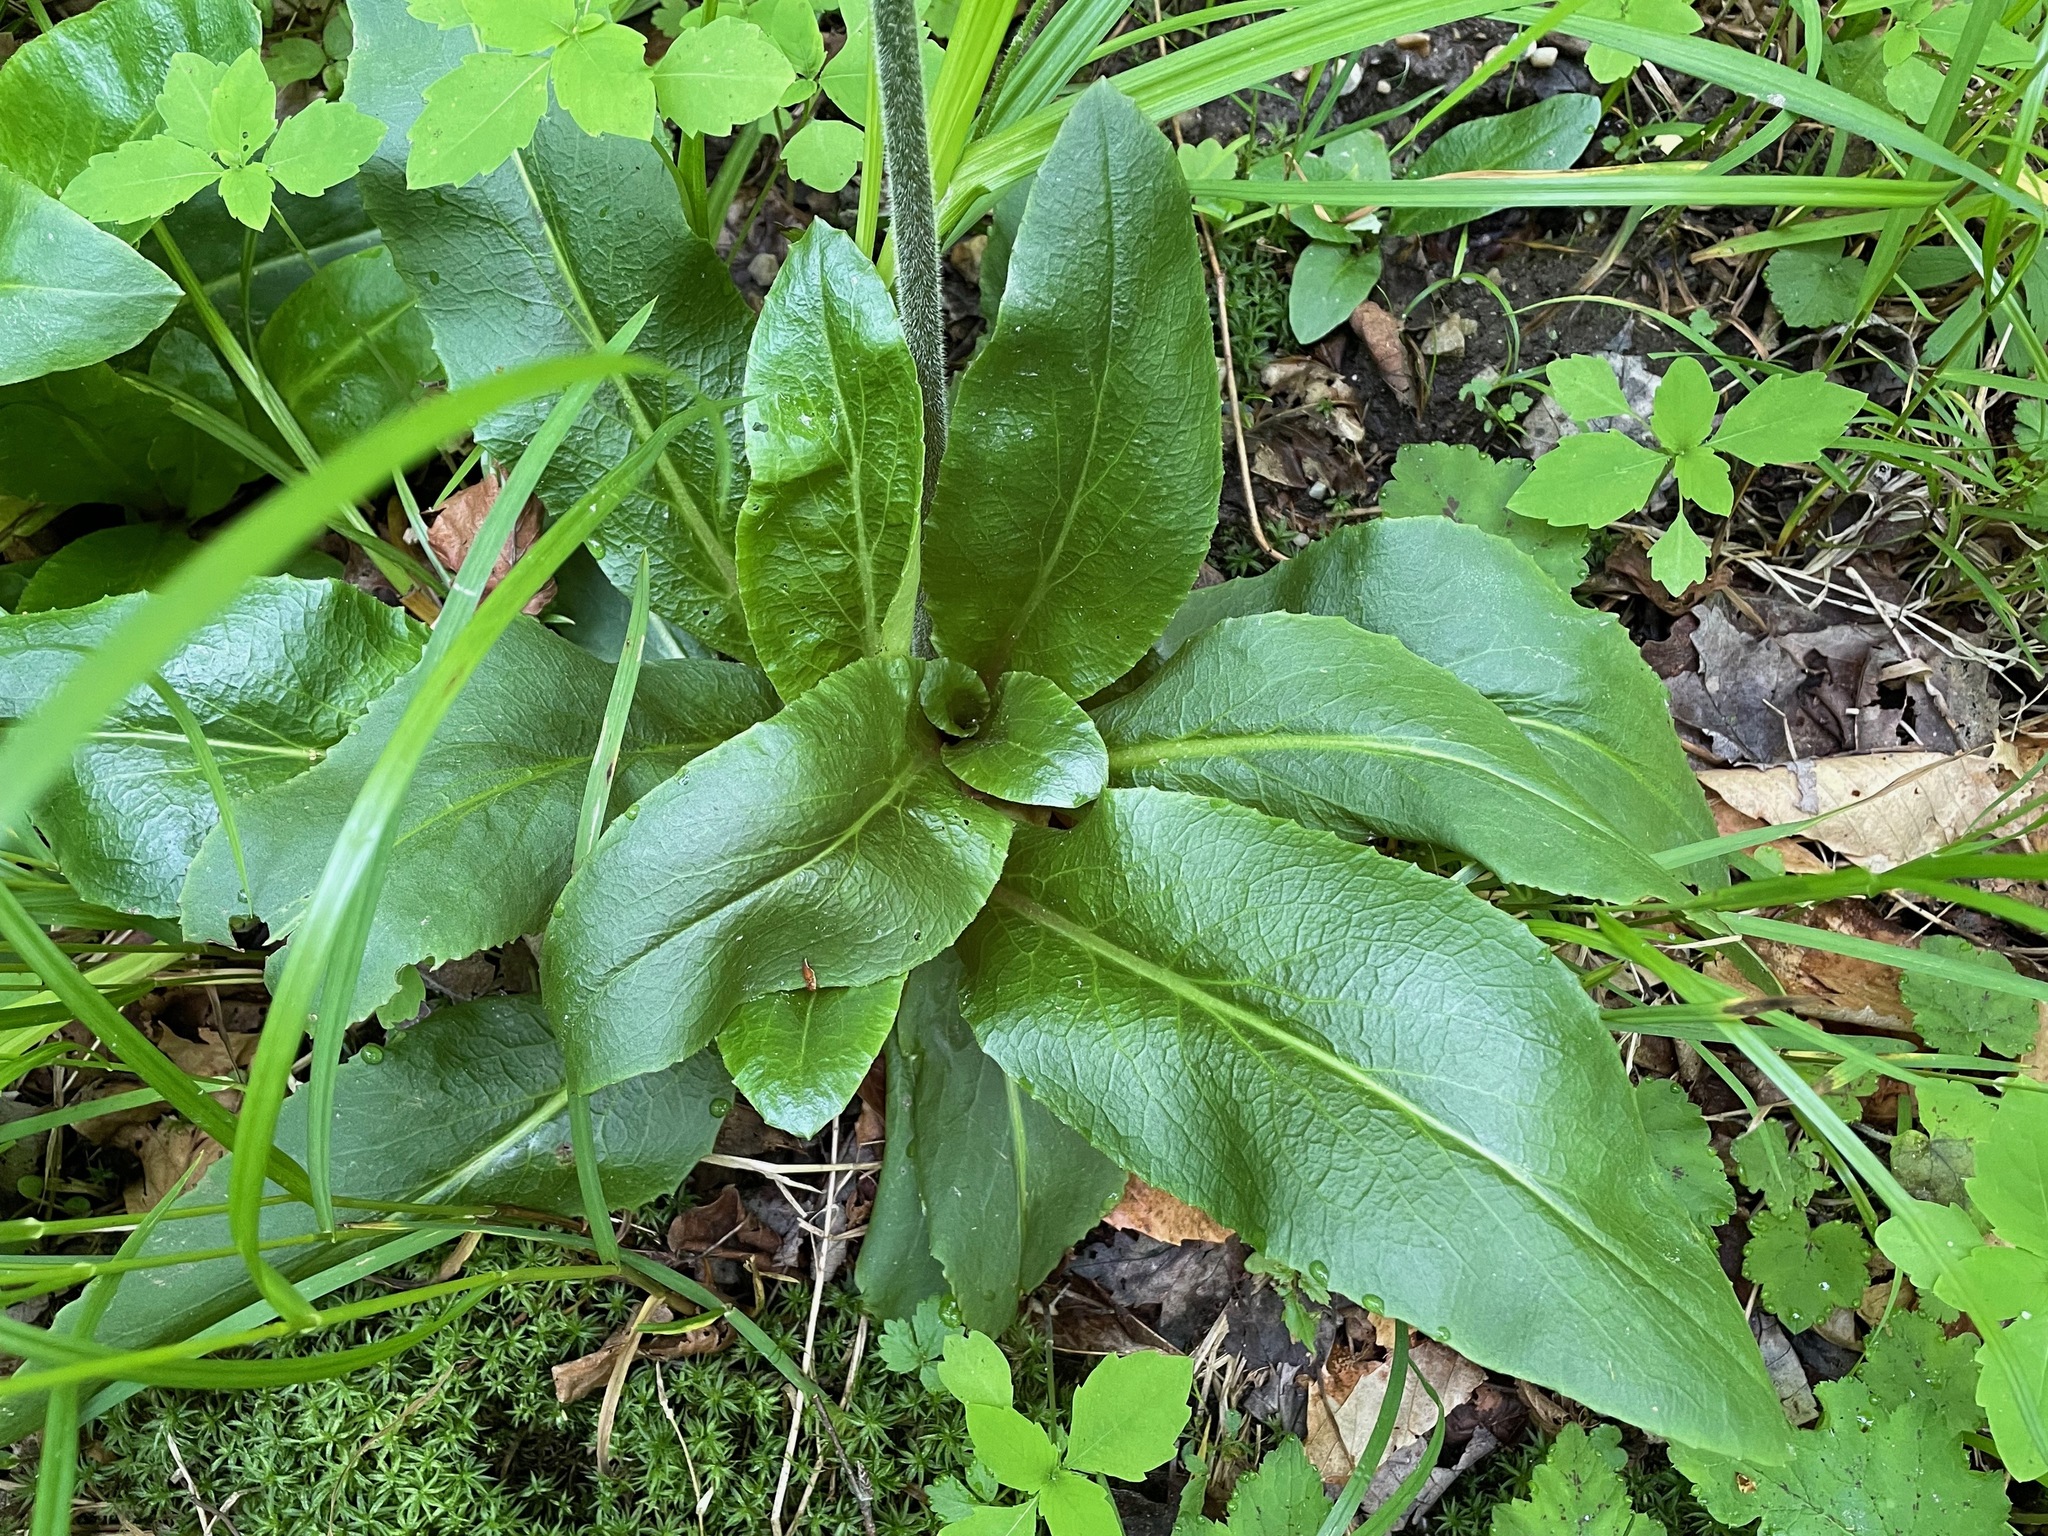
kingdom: Plantae
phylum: Tracheophyta
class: Magnoliopsida
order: Saxifragales
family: Saxifragaceae
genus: Micranthes
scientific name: Micranthes pensylvanica
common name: Marsh saxifrage
